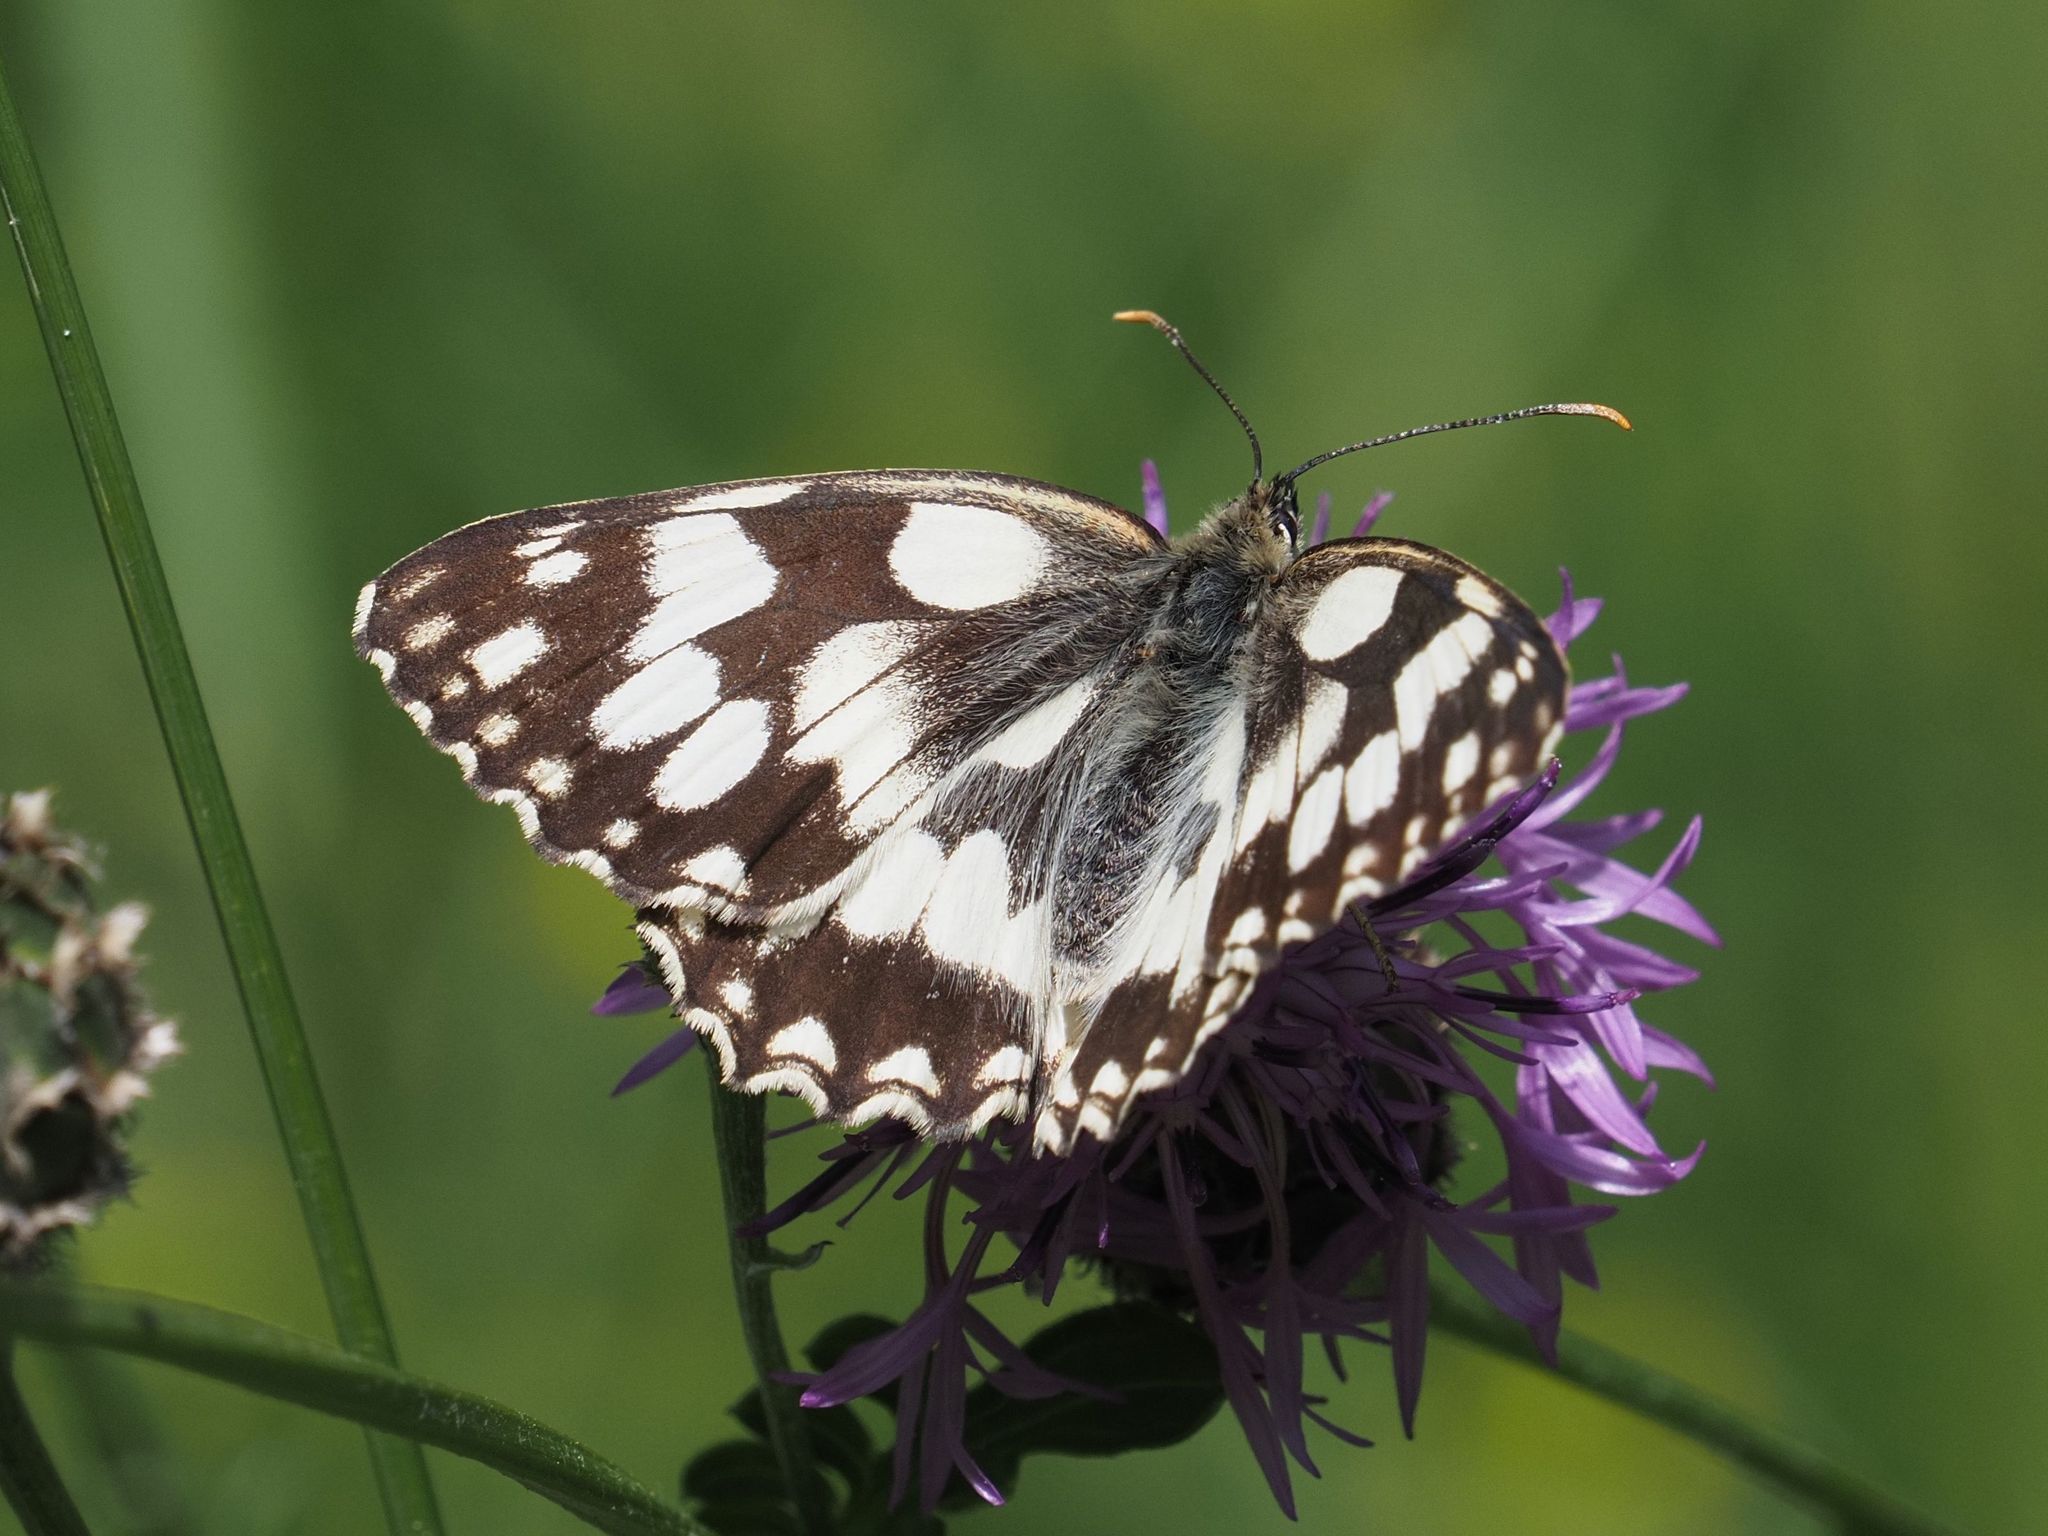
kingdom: Animalia
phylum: Arthropoda
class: Insecta
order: Lepidoptera
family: Nymphalidae
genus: Melanargia
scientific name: Melanargia galathea
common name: Marbled white
